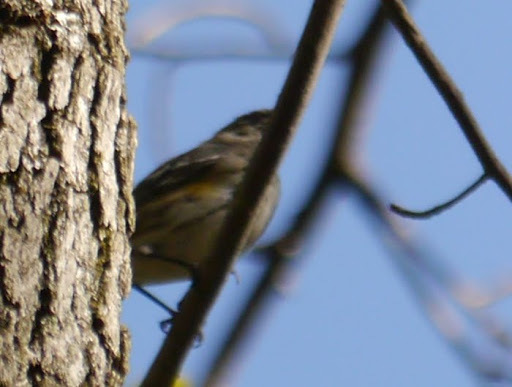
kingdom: Animalia
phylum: Chordata
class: Aves
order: Passeriformes
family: Parulidae
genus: Setophaga
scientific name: Setophaga coronata
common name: Myrtle warbler
